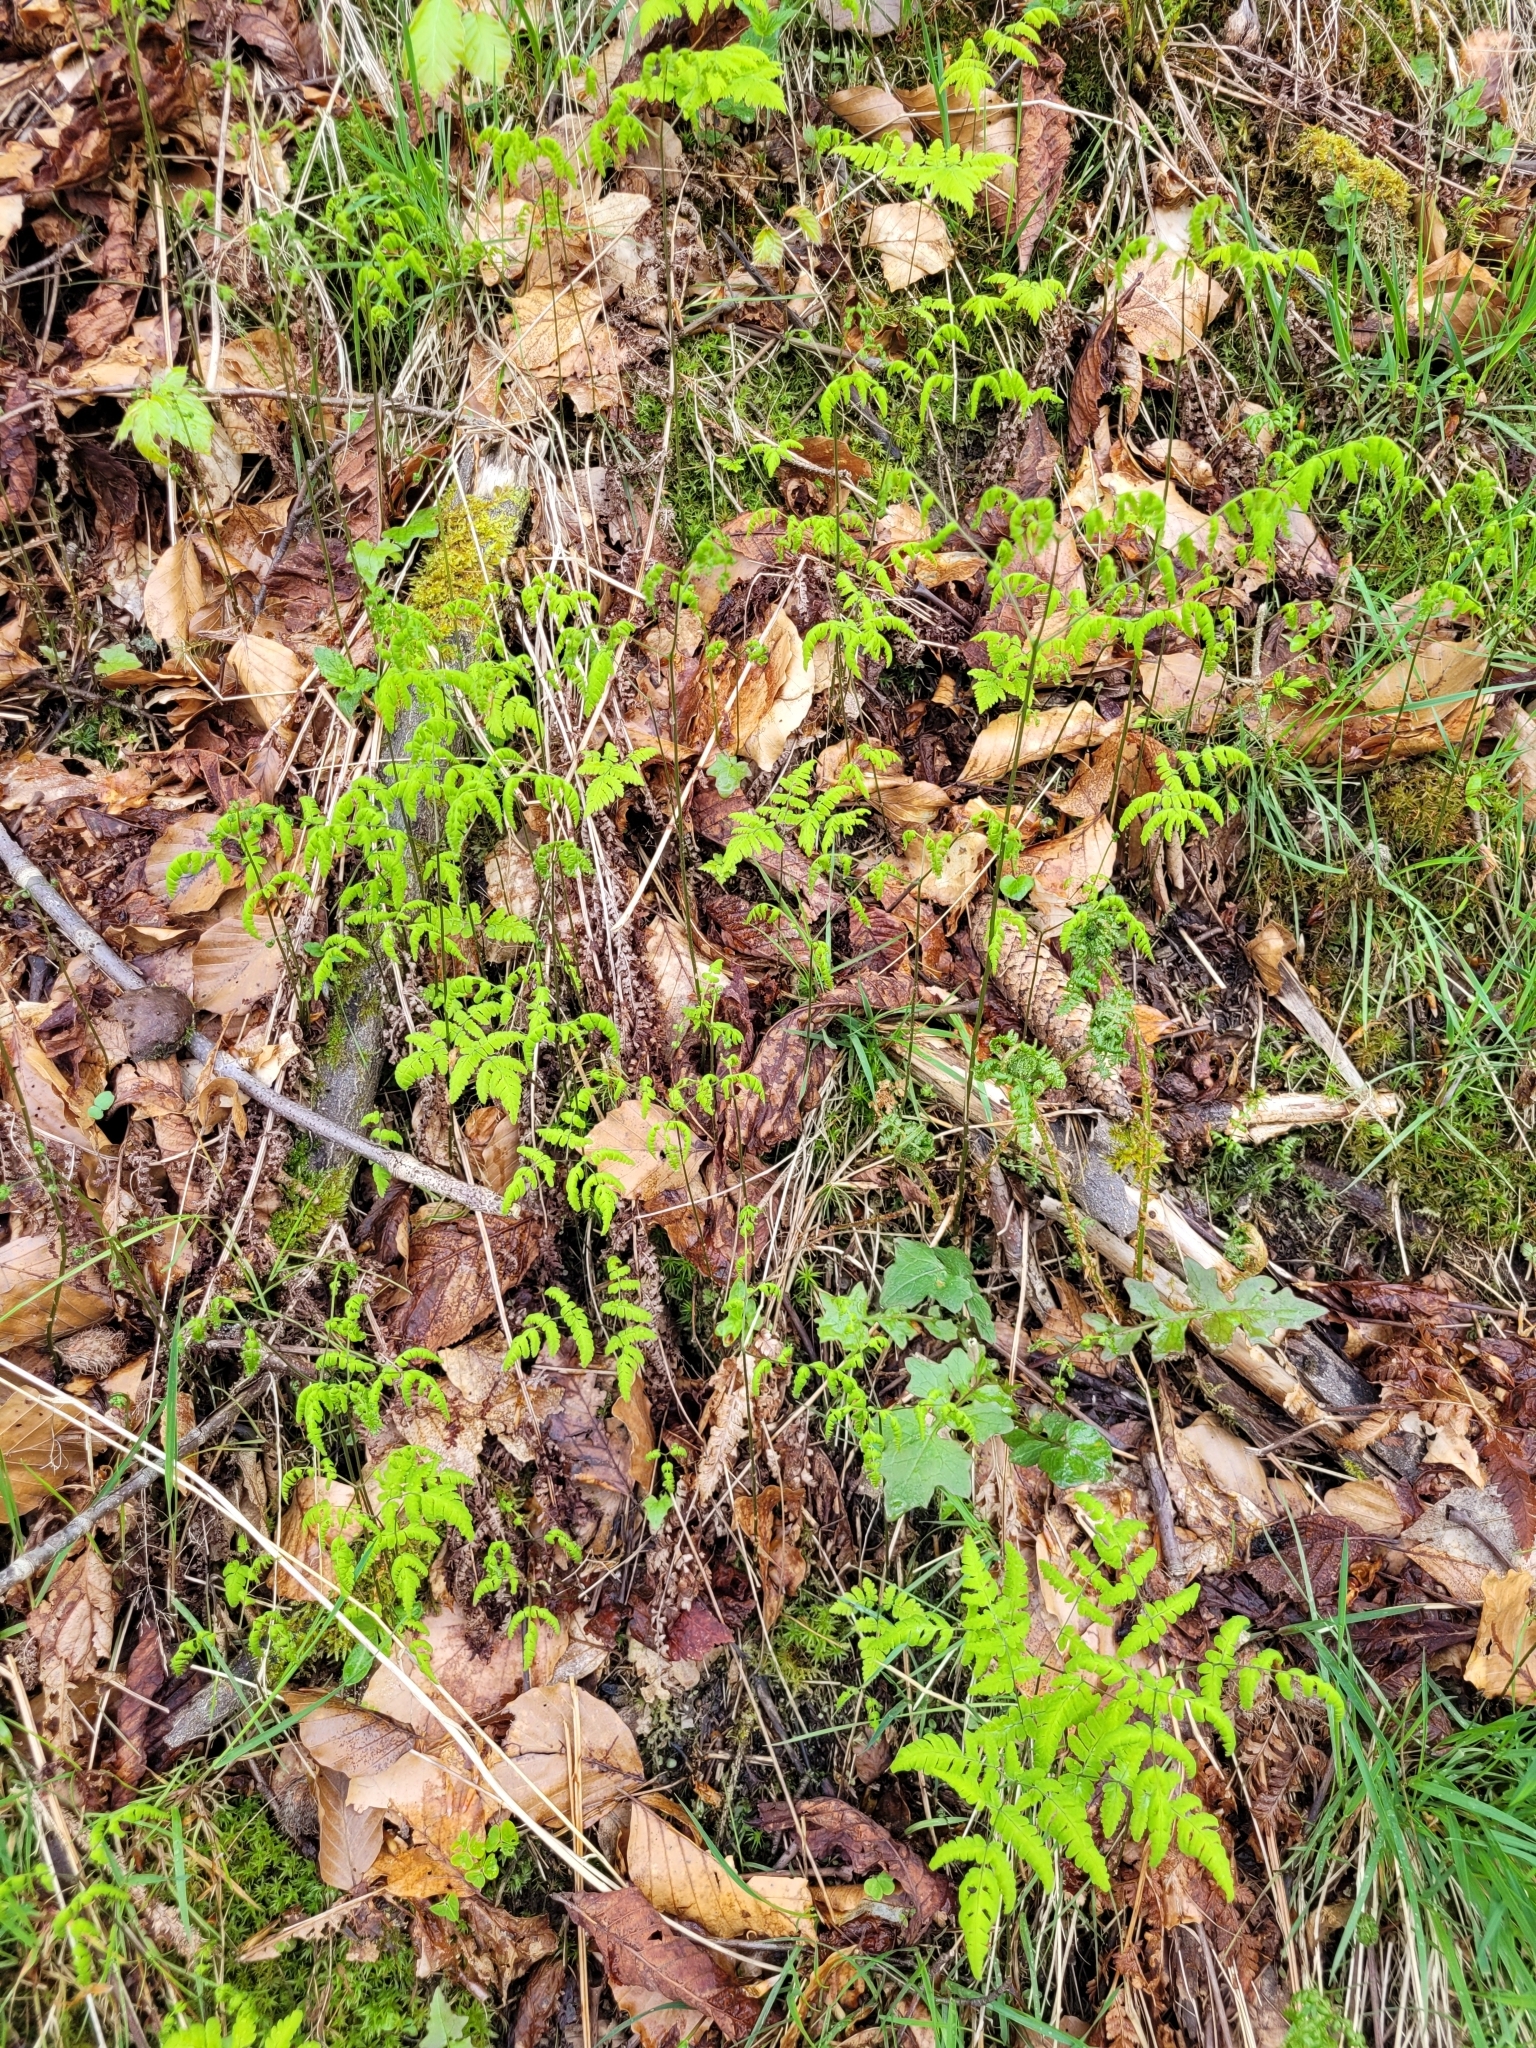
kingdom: Plantae
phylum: Tracheophyta
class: Polypodiopsida
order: Polypodiales
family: Cystopteridaceae
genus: Gymnocarpium
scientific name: Gymnocarpium dryopteris
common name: Oak fern
